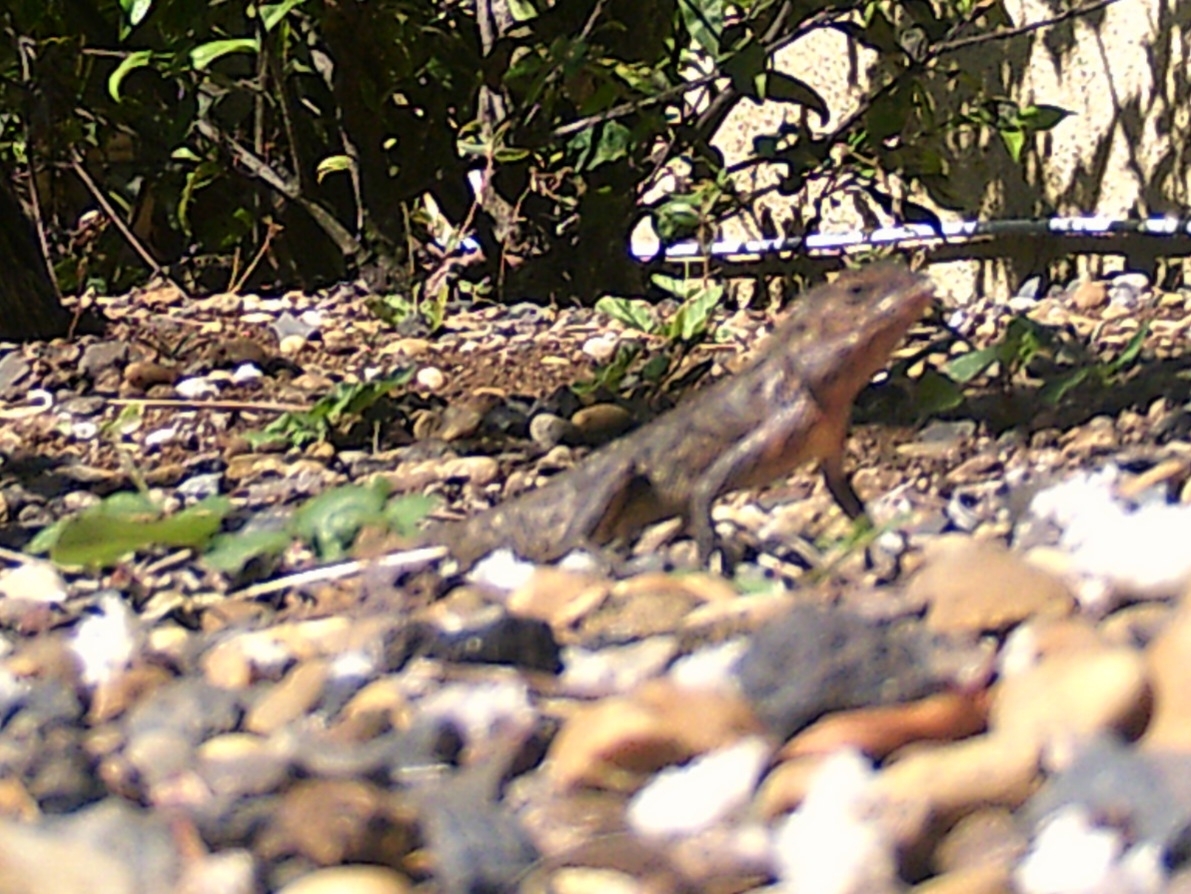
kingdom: Animalia
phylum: Chordata
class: Squamata
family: Agamidae
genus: Calotes
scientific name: Calotes versicolor
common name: Oriental garden lizard
